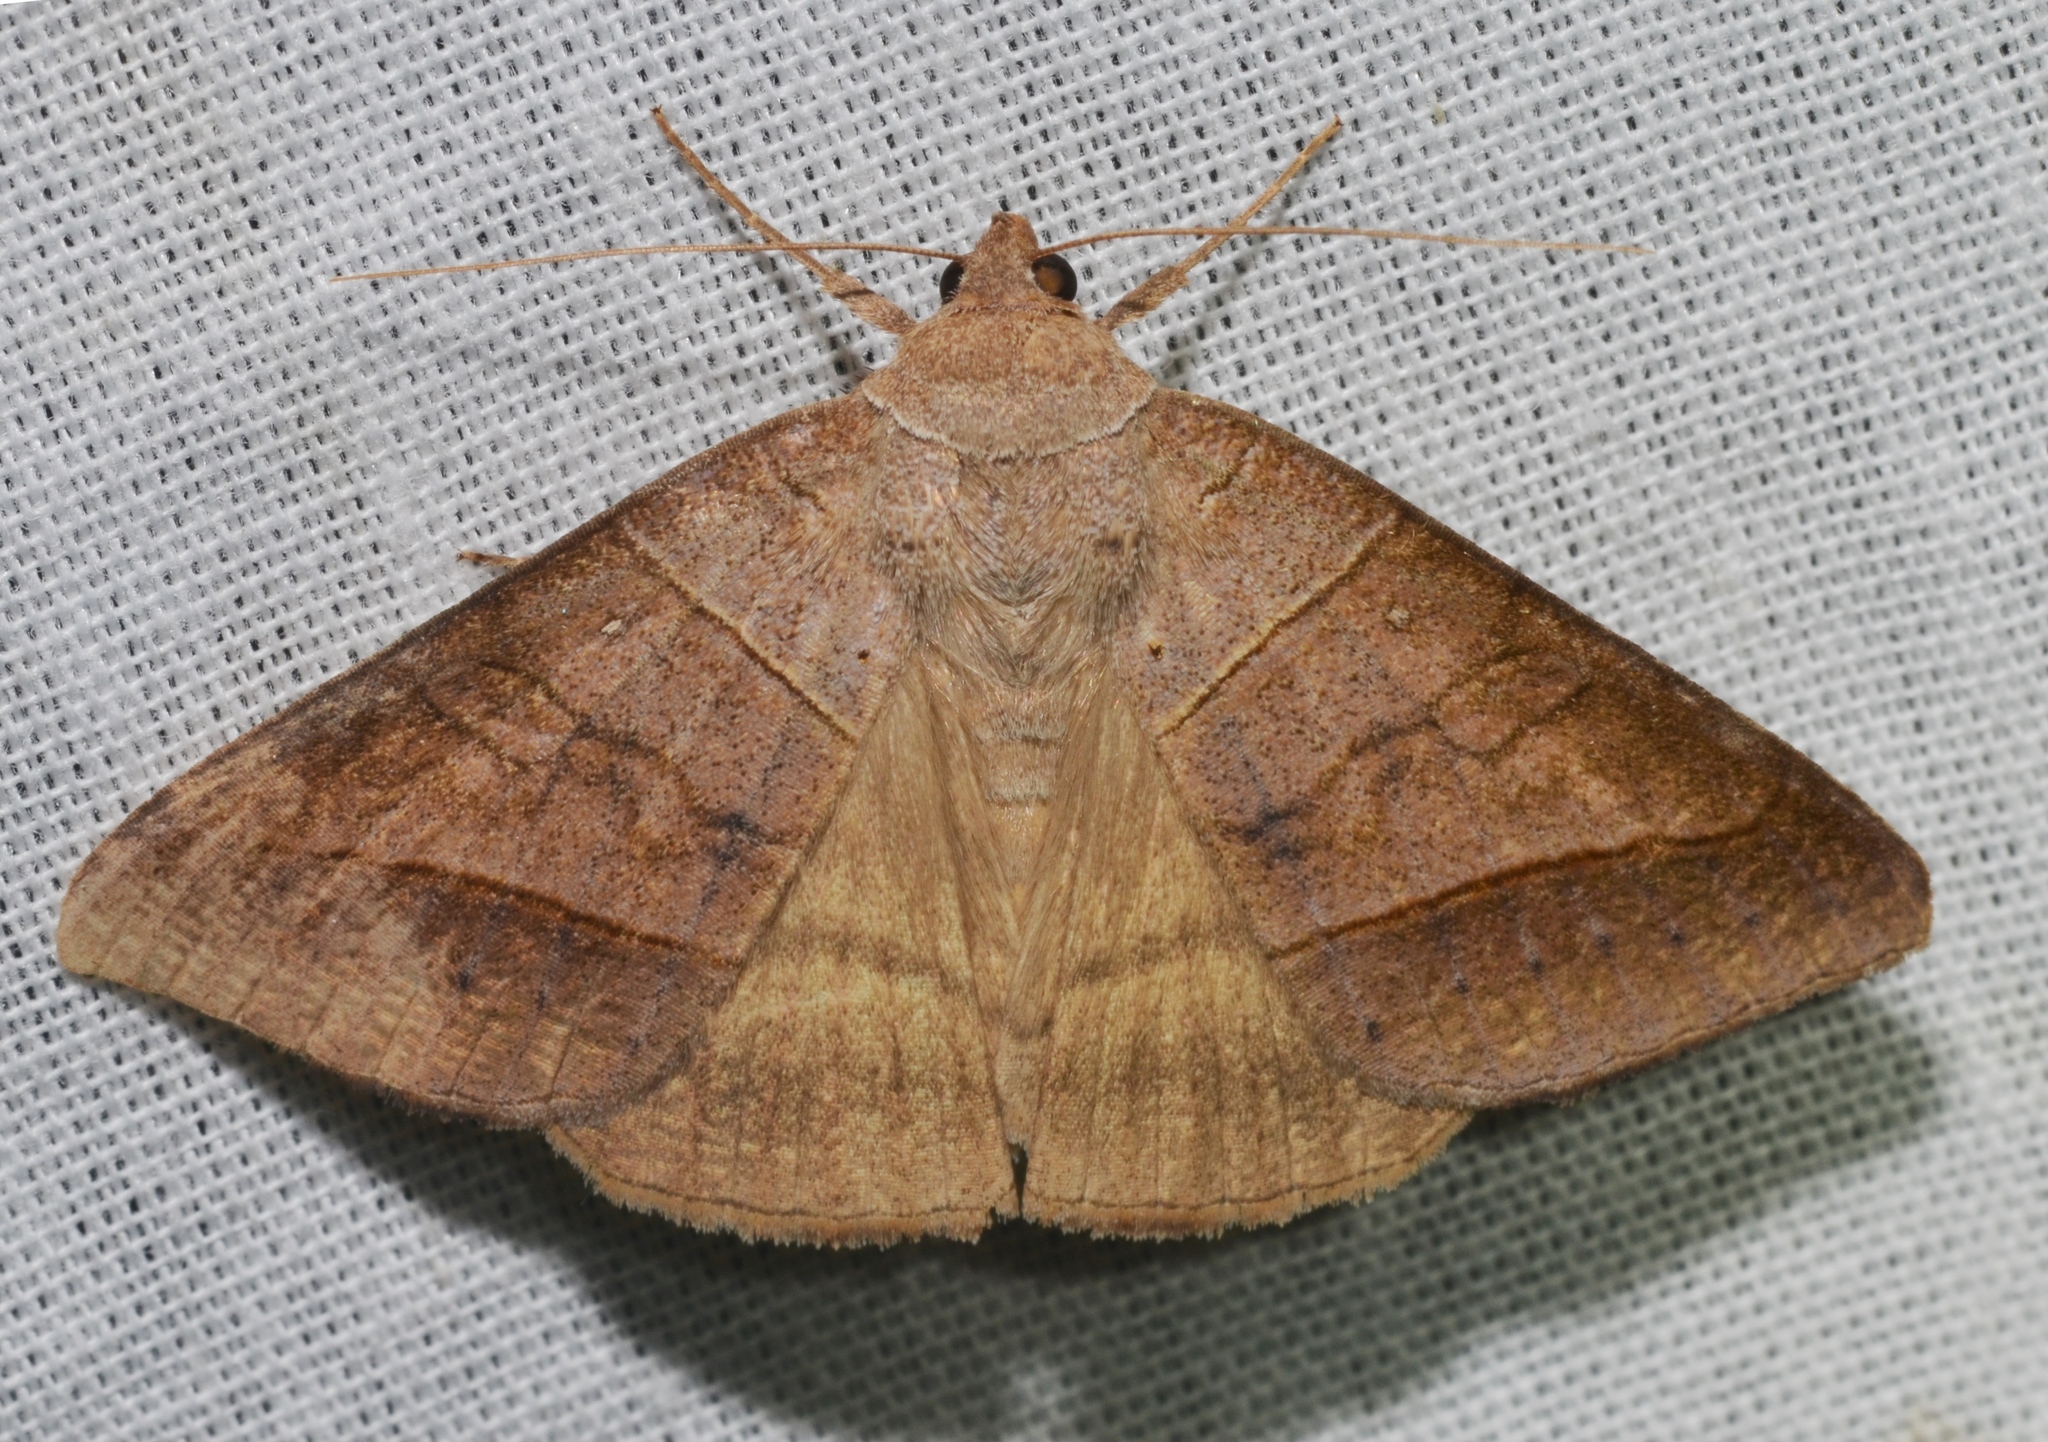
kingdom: Animalia
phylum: Arthropoda
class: Insecta
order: Lepidoptera
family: Erebidae
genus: Mocis
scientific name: Mocis texana
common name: Texas mocis moth
